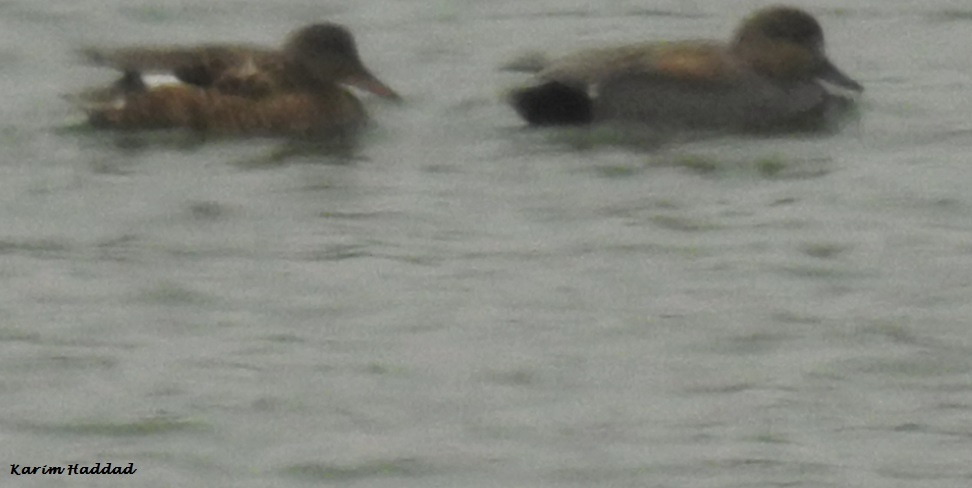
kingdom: Animalia
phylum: Chordata
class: Aves
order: Anseriformes
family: Anatidae
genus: Mareca
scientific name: Mareca strepera
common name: Gadwall
